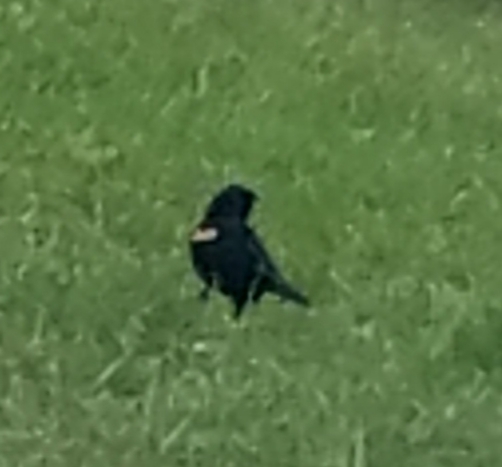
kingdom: Animalia
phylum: Chordata
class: Aves
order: Passeriformes
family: Icteridae
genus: Agelaius
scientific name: Agelaius phoeniceus
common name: Red-winged blackbird
